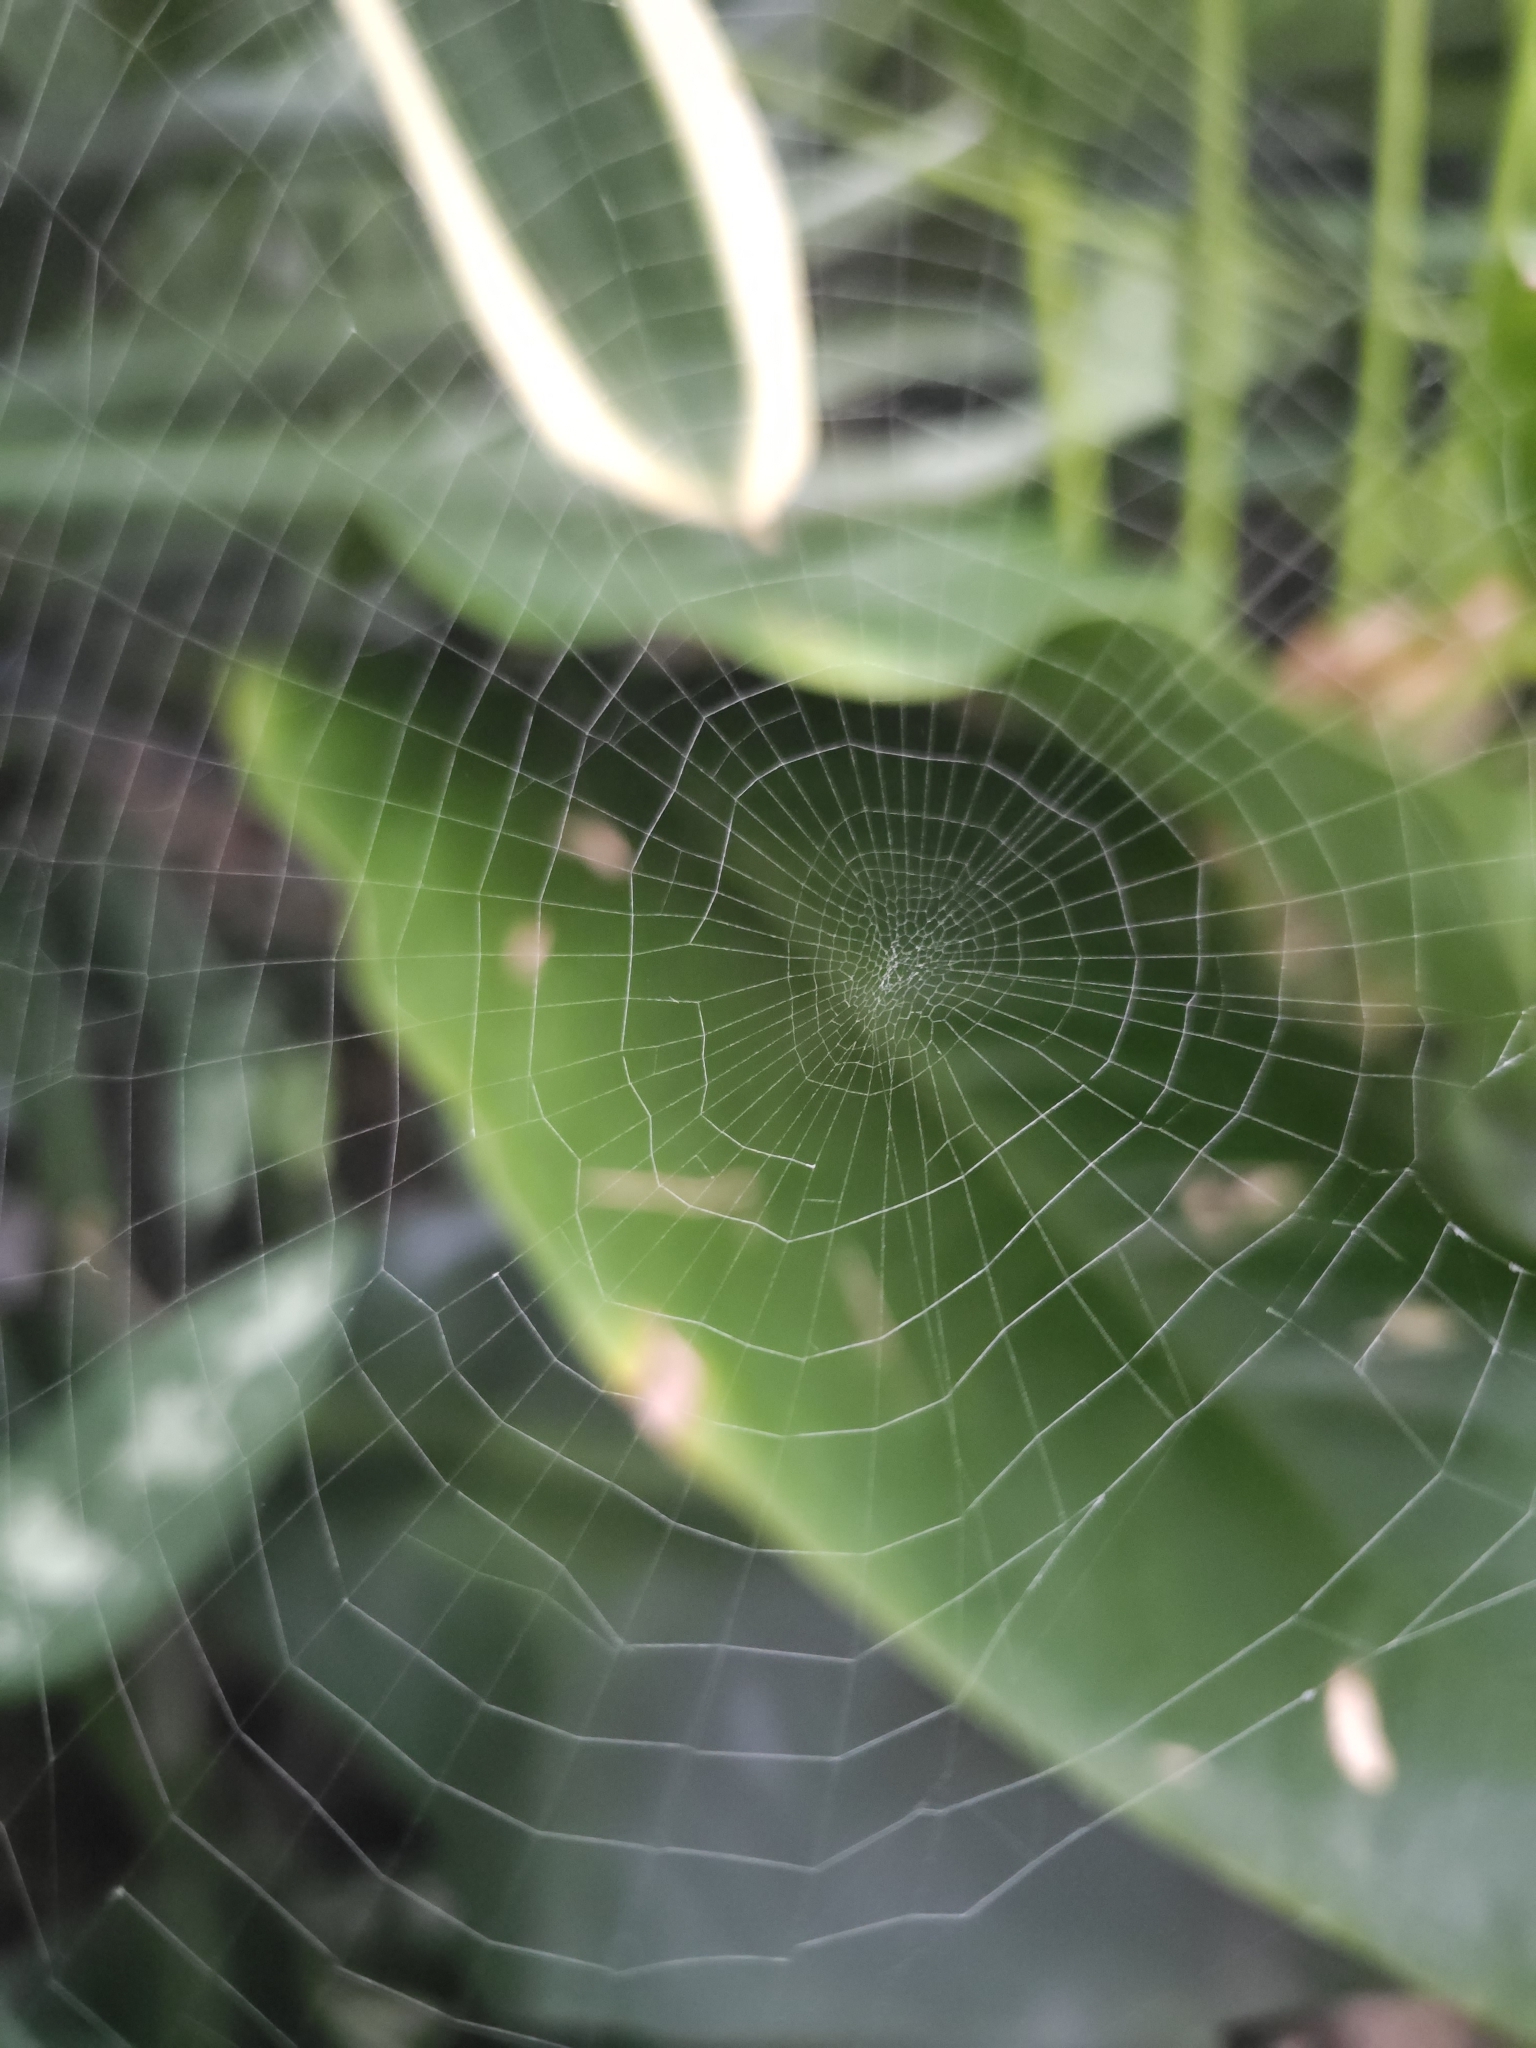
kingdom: Animalia
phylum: Arthropoda
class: Arachnida
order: Araneae
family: Uloboridae
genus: Uloborus
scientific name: Uloborus plumipes
